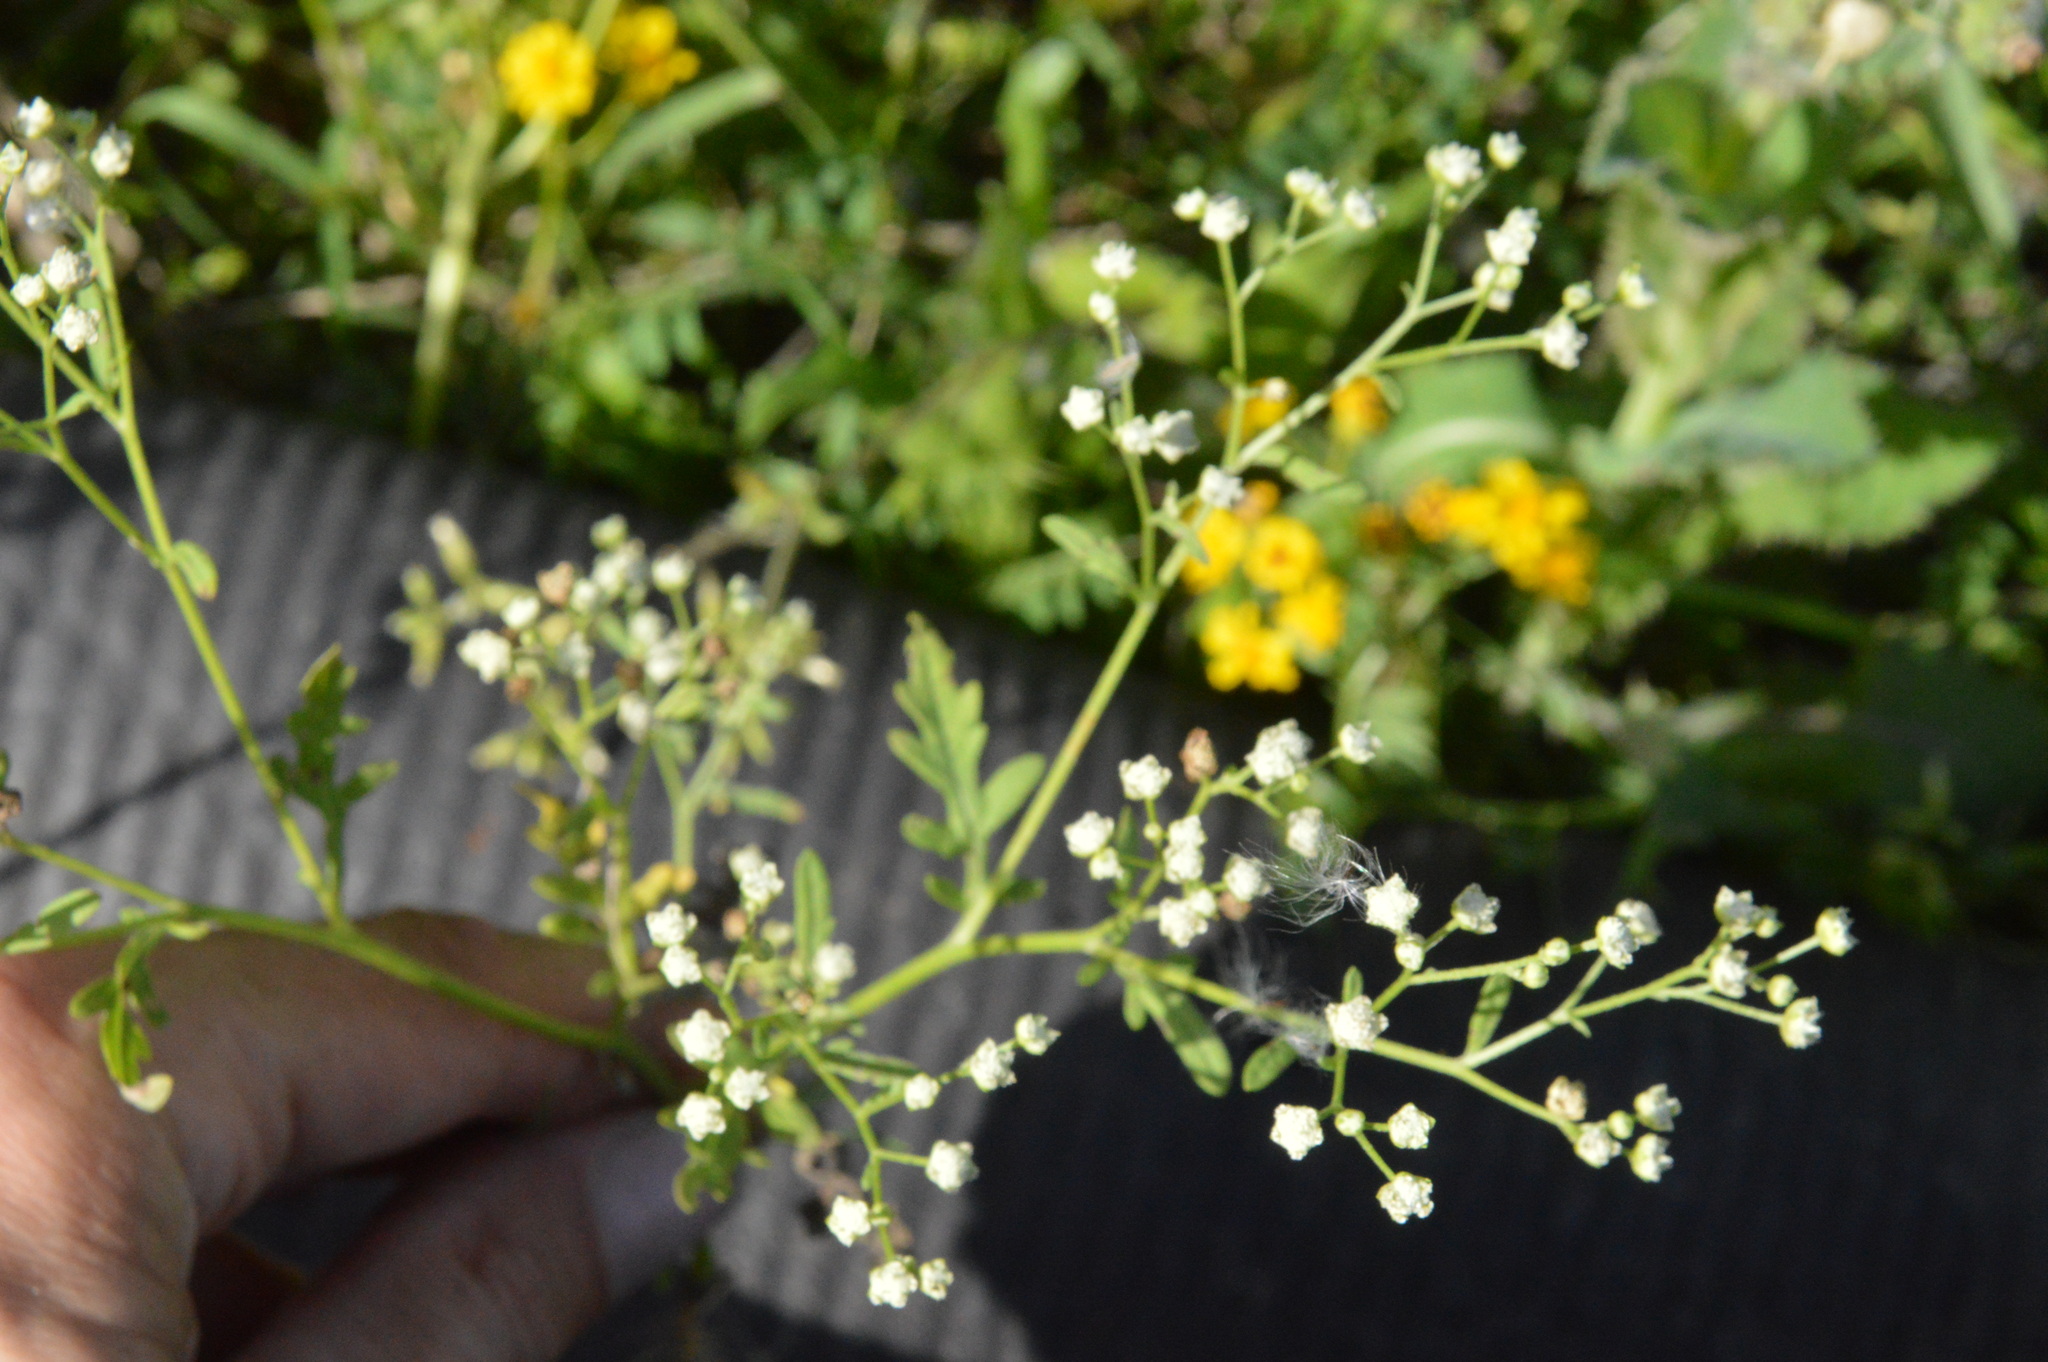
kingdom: Plantae
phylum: Tracheophyta
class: Magnoliopsida
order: Asterales
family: Asteraceae
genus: Parthenium
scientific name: Parthenium hysterophorus
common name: Santa maria feverfew
